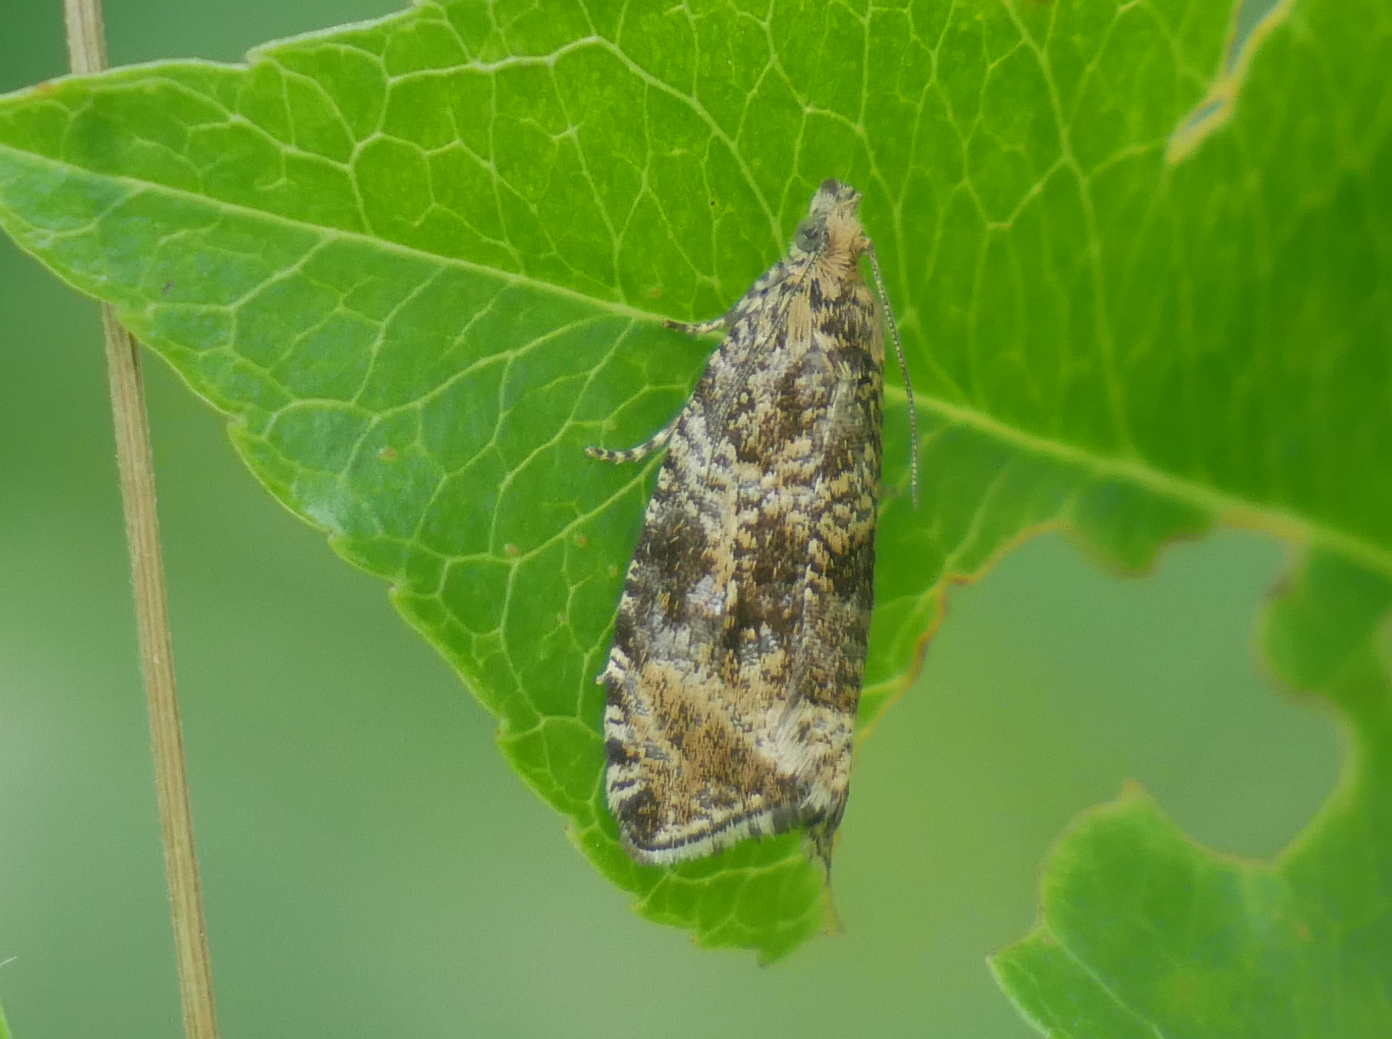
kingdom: Animalia
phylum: Arthropoda
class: Insecta
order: Lepidoptera
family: Tortricidae
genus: Syricoris
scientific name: Syricoris lacunana
